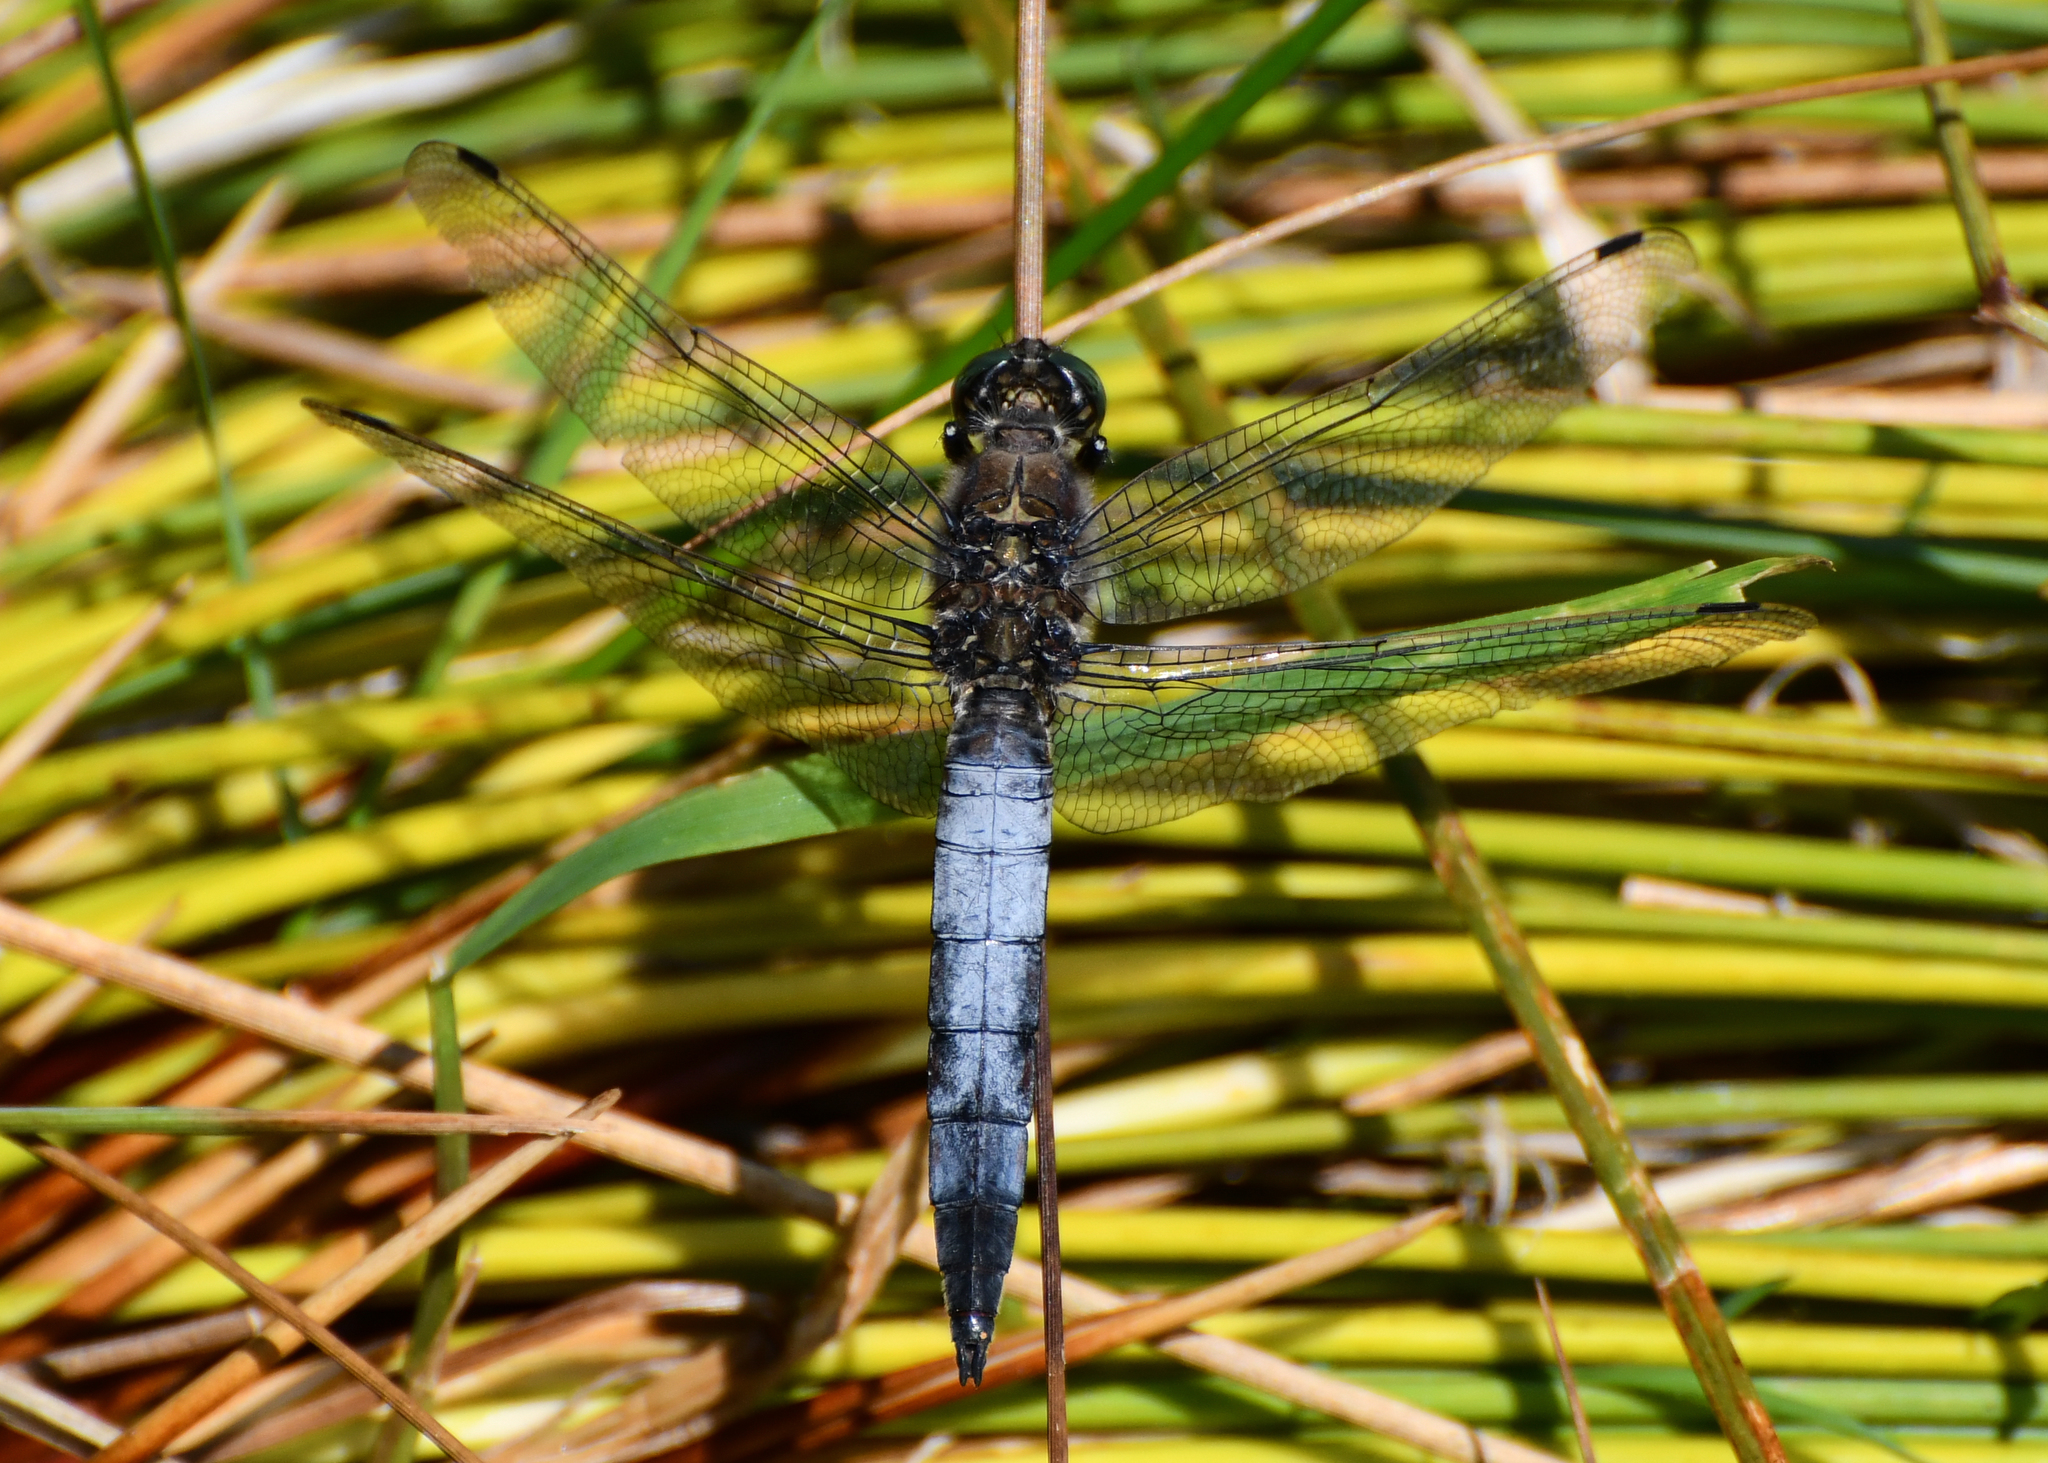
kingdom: Animalia
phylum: Arthropoda
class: Insecta
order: Odonata
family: Libellulidae
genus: Orthetrum
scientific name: Orthetrum cancellatum
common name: Black-tailed skimmer
